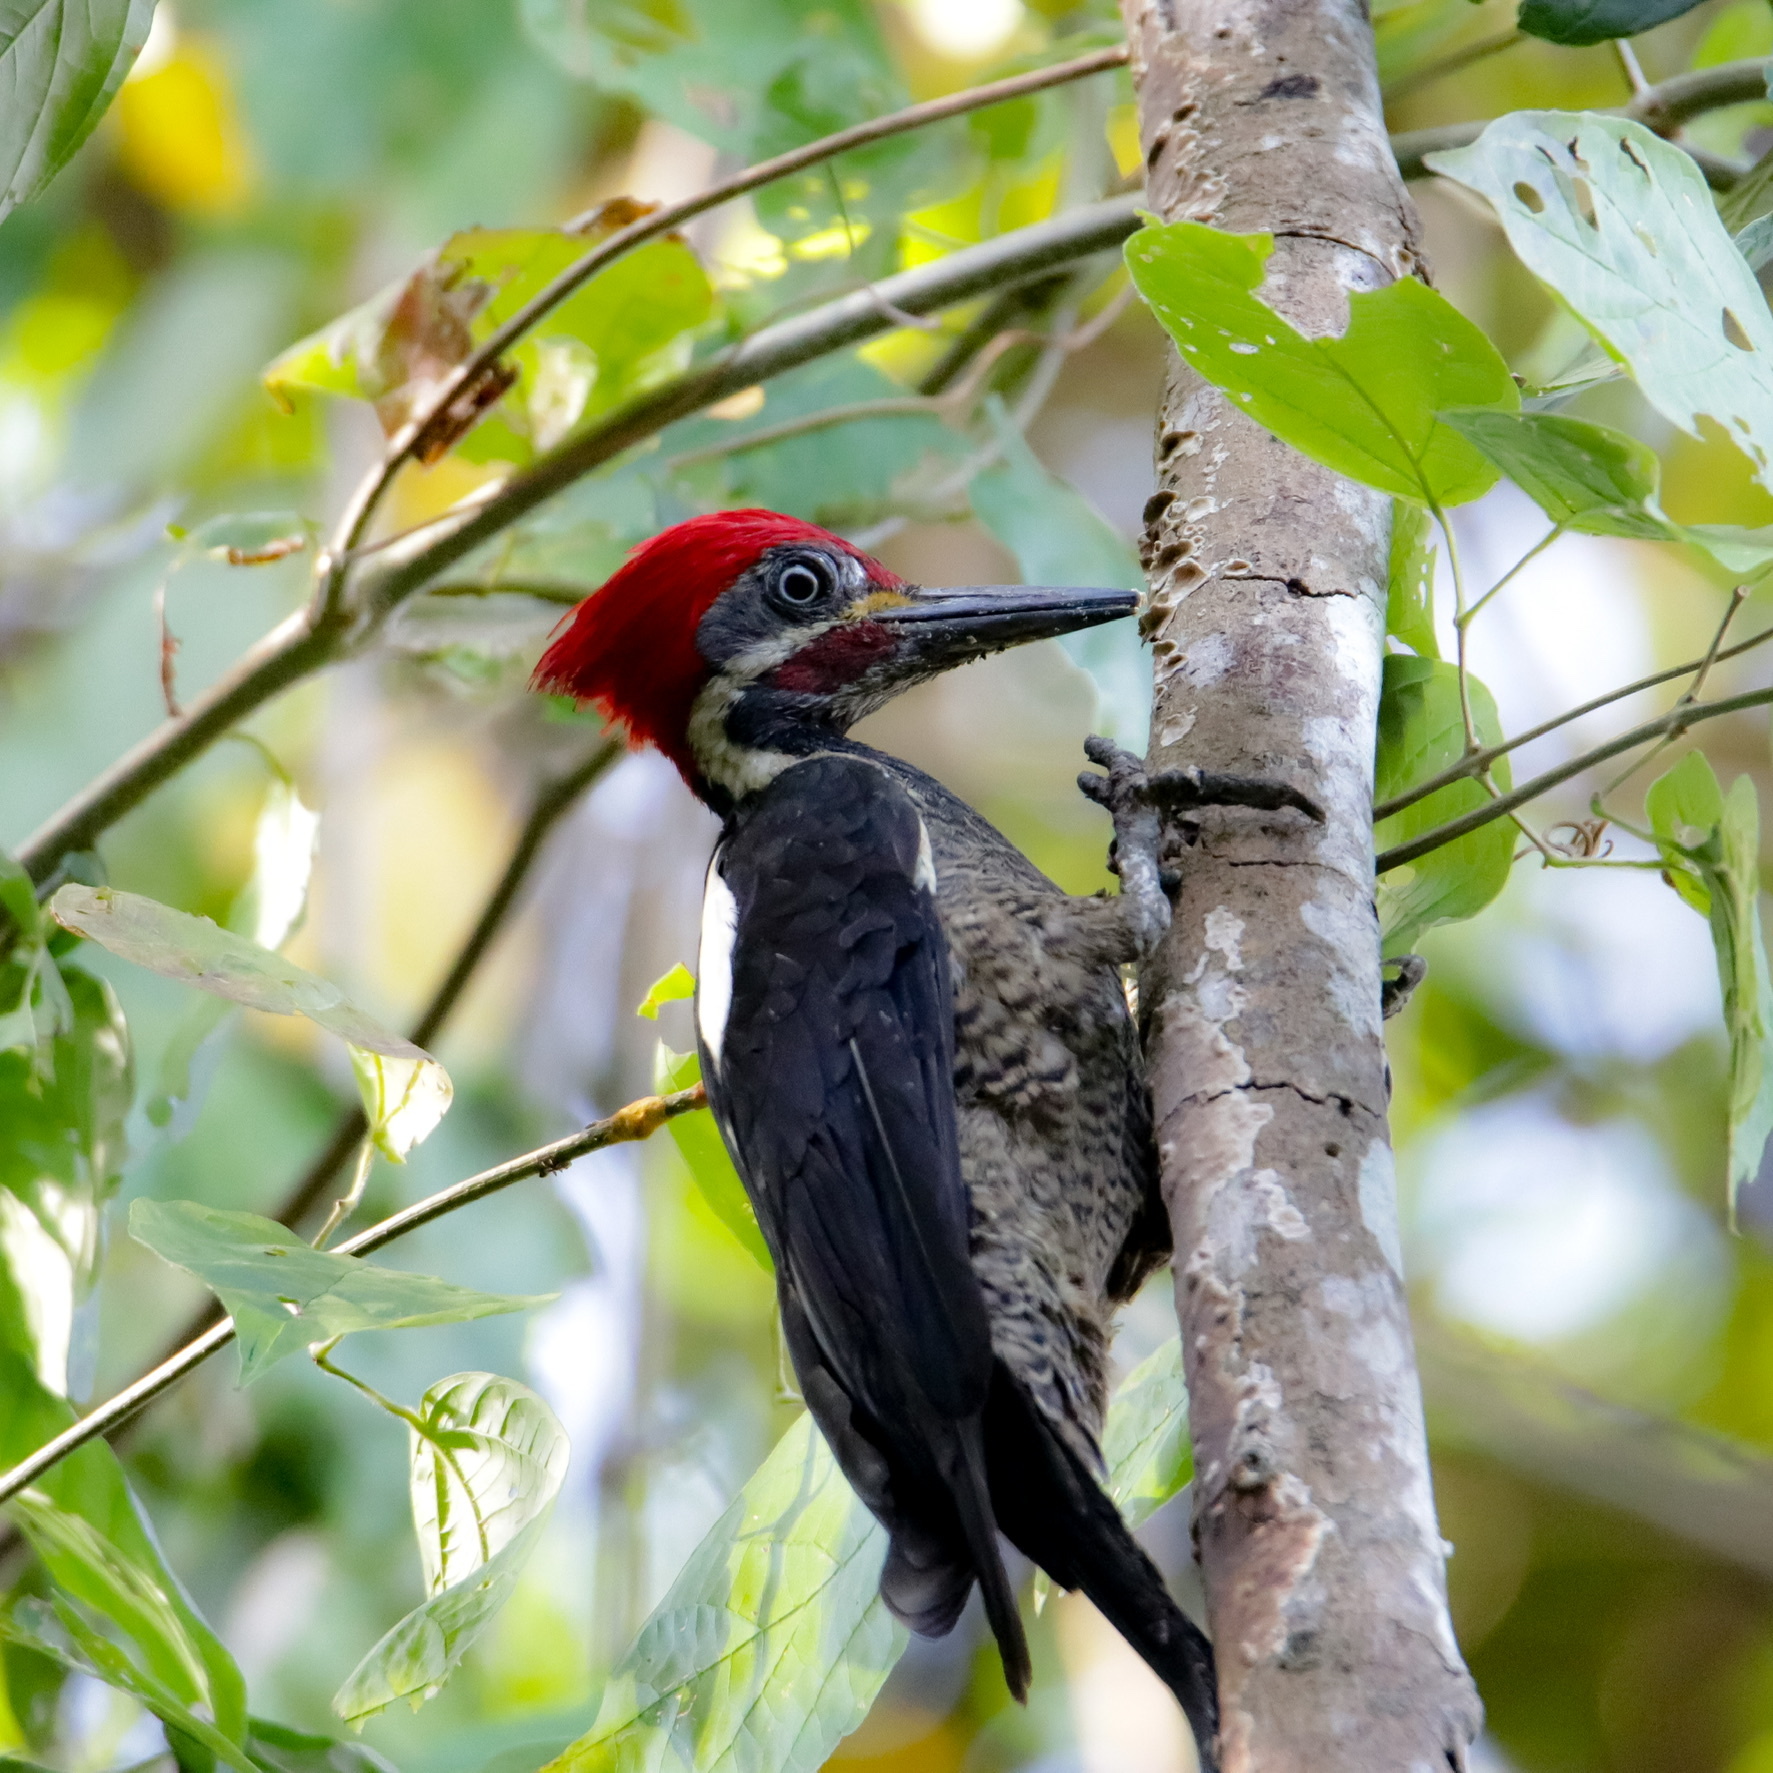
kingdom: Animalia
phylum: Chordata
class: Aves
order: Piciformes
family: Picidae
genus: Dryocopus
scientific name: Dryocopus lineatus
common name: Lineated woodpecker
